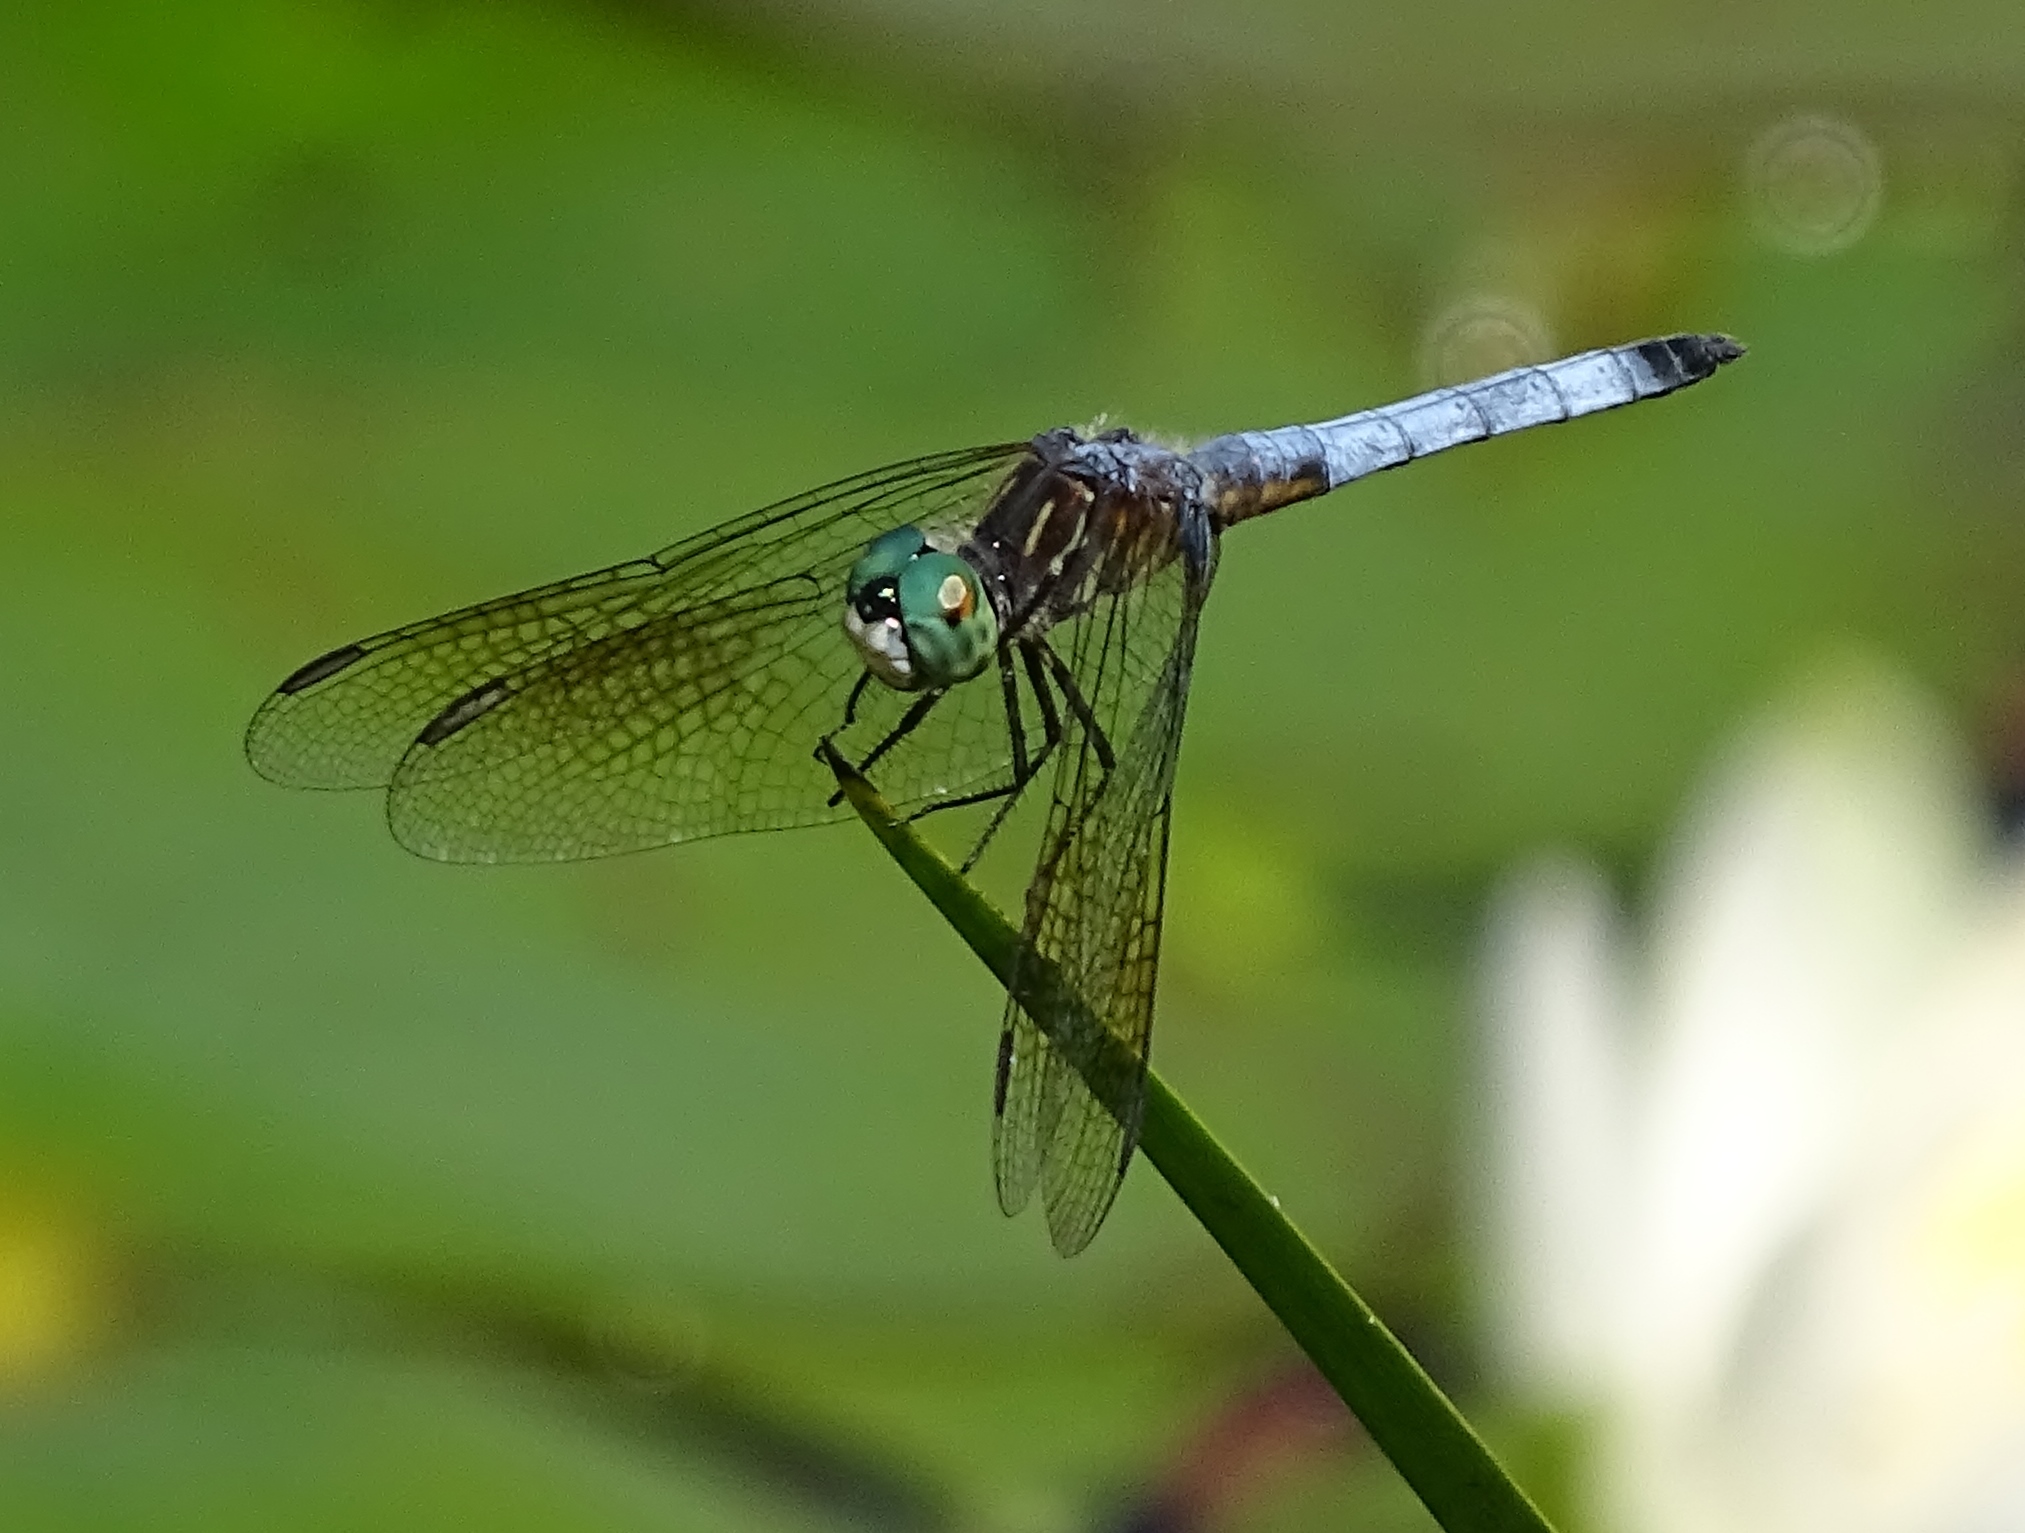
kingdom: Animalia
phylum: Arthropoda
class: Insecta
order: Odonata
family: Libellulidae
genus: Pachydiplax
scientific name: Pachydiplax longipennis
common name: Blue dasher
